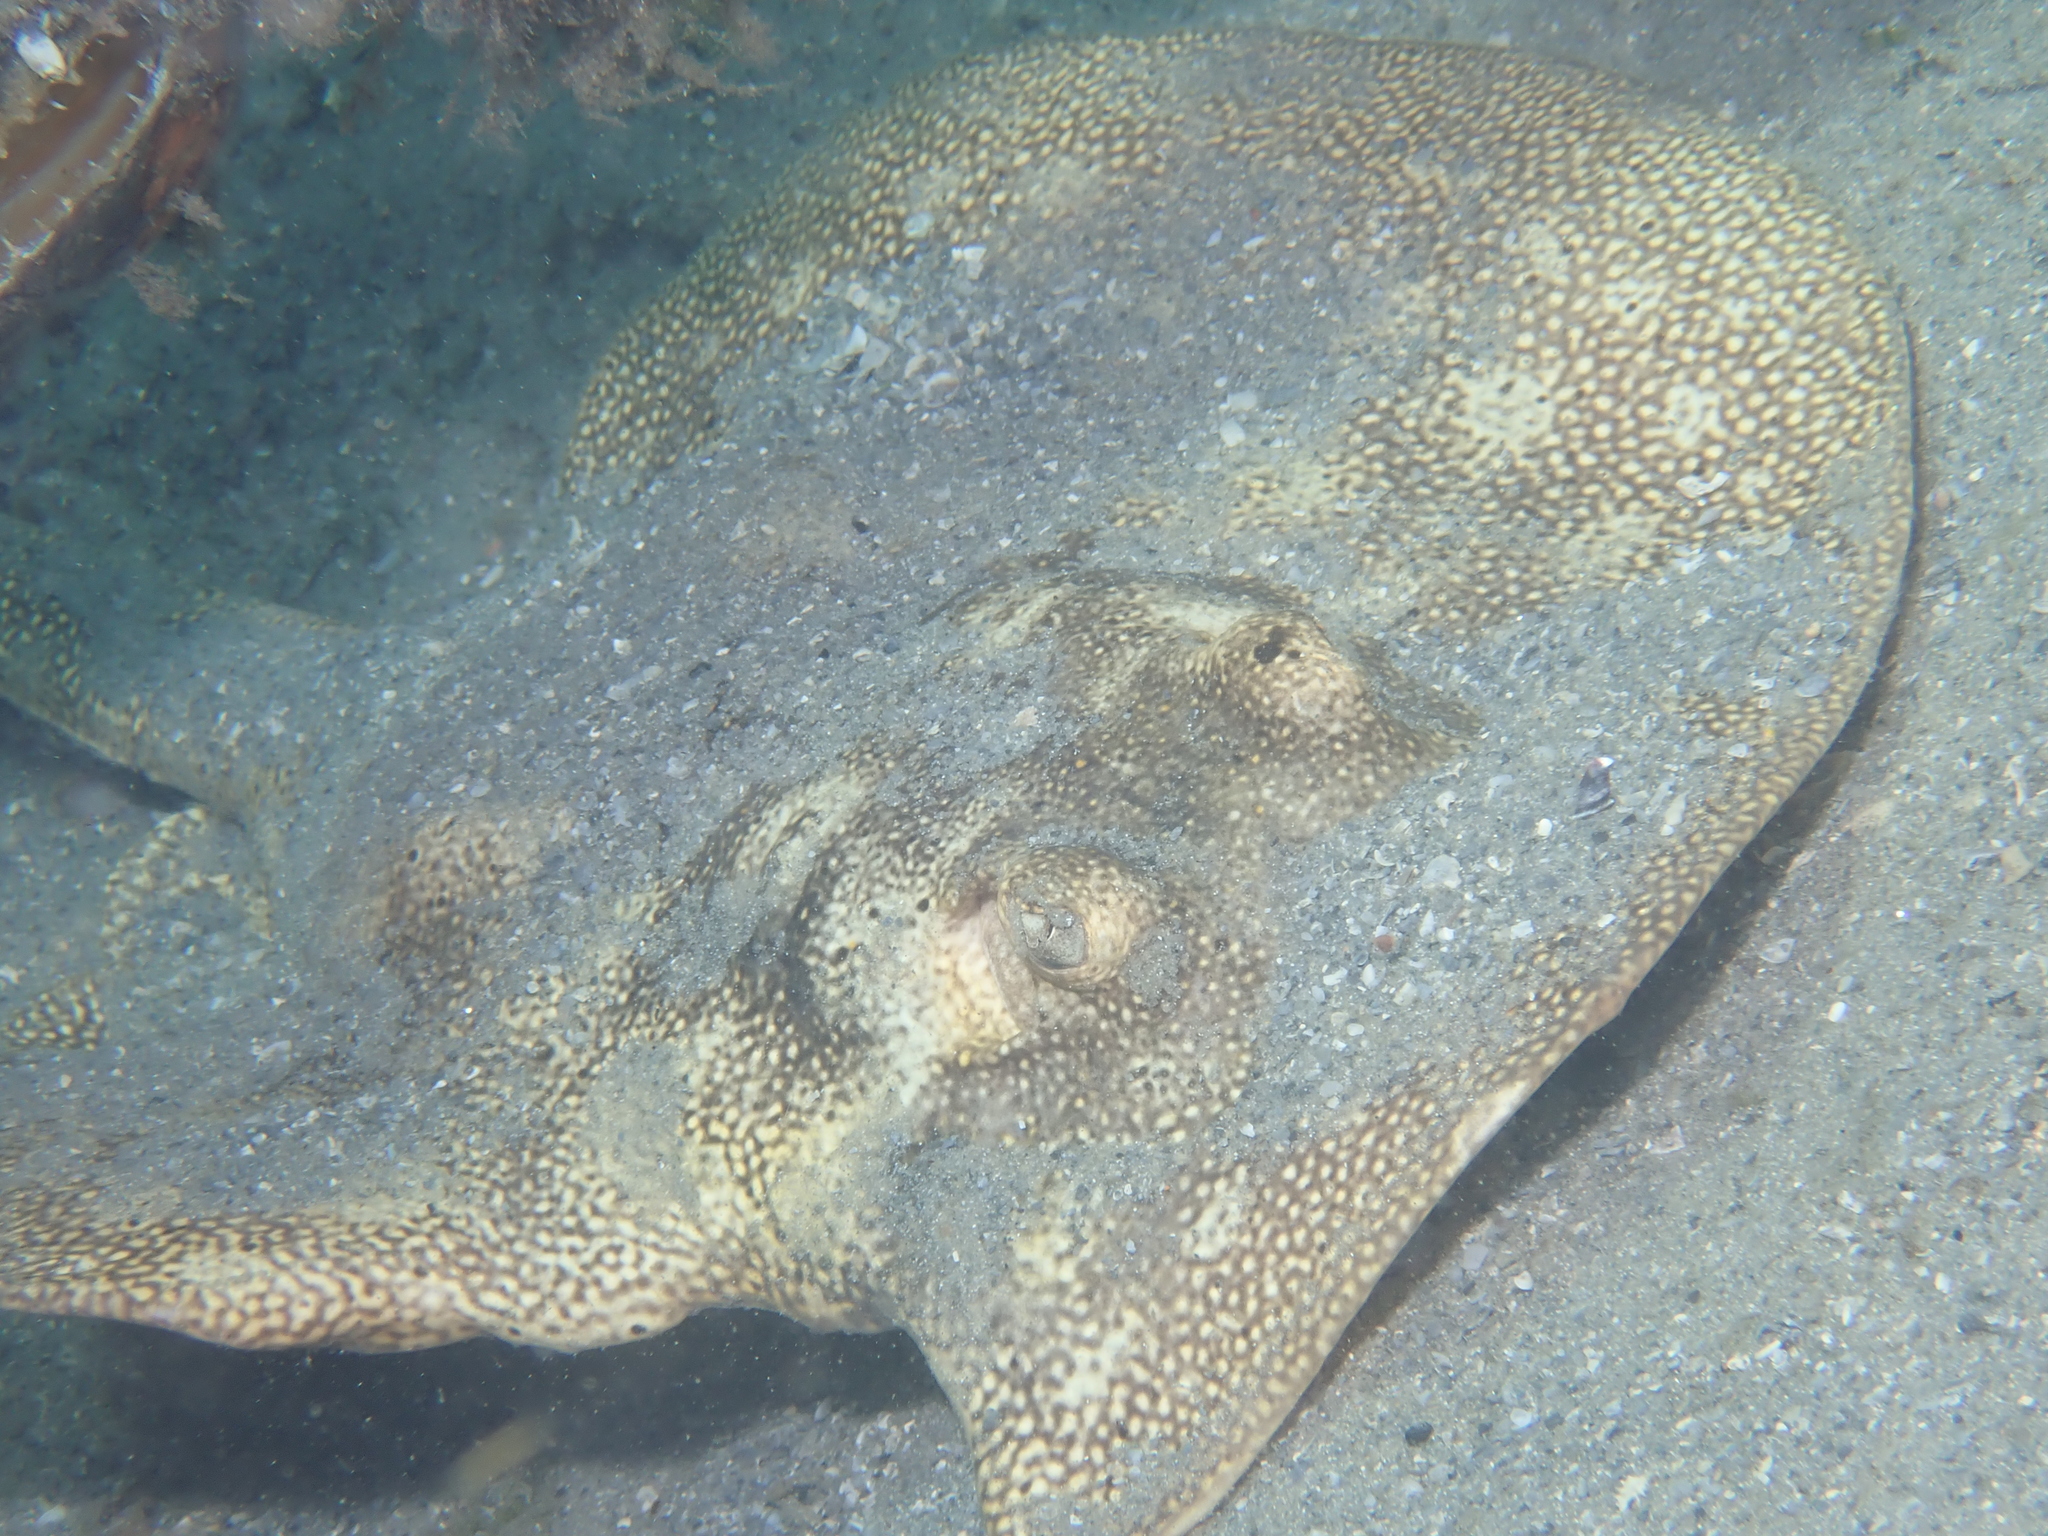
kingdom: Animalia
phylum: Chordata
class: Elasmobranchii
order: Myliobatiformes
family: Urotrygonidae
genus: Urobatis
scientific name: Urobatis jamaicensis
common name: Yellow stingray
